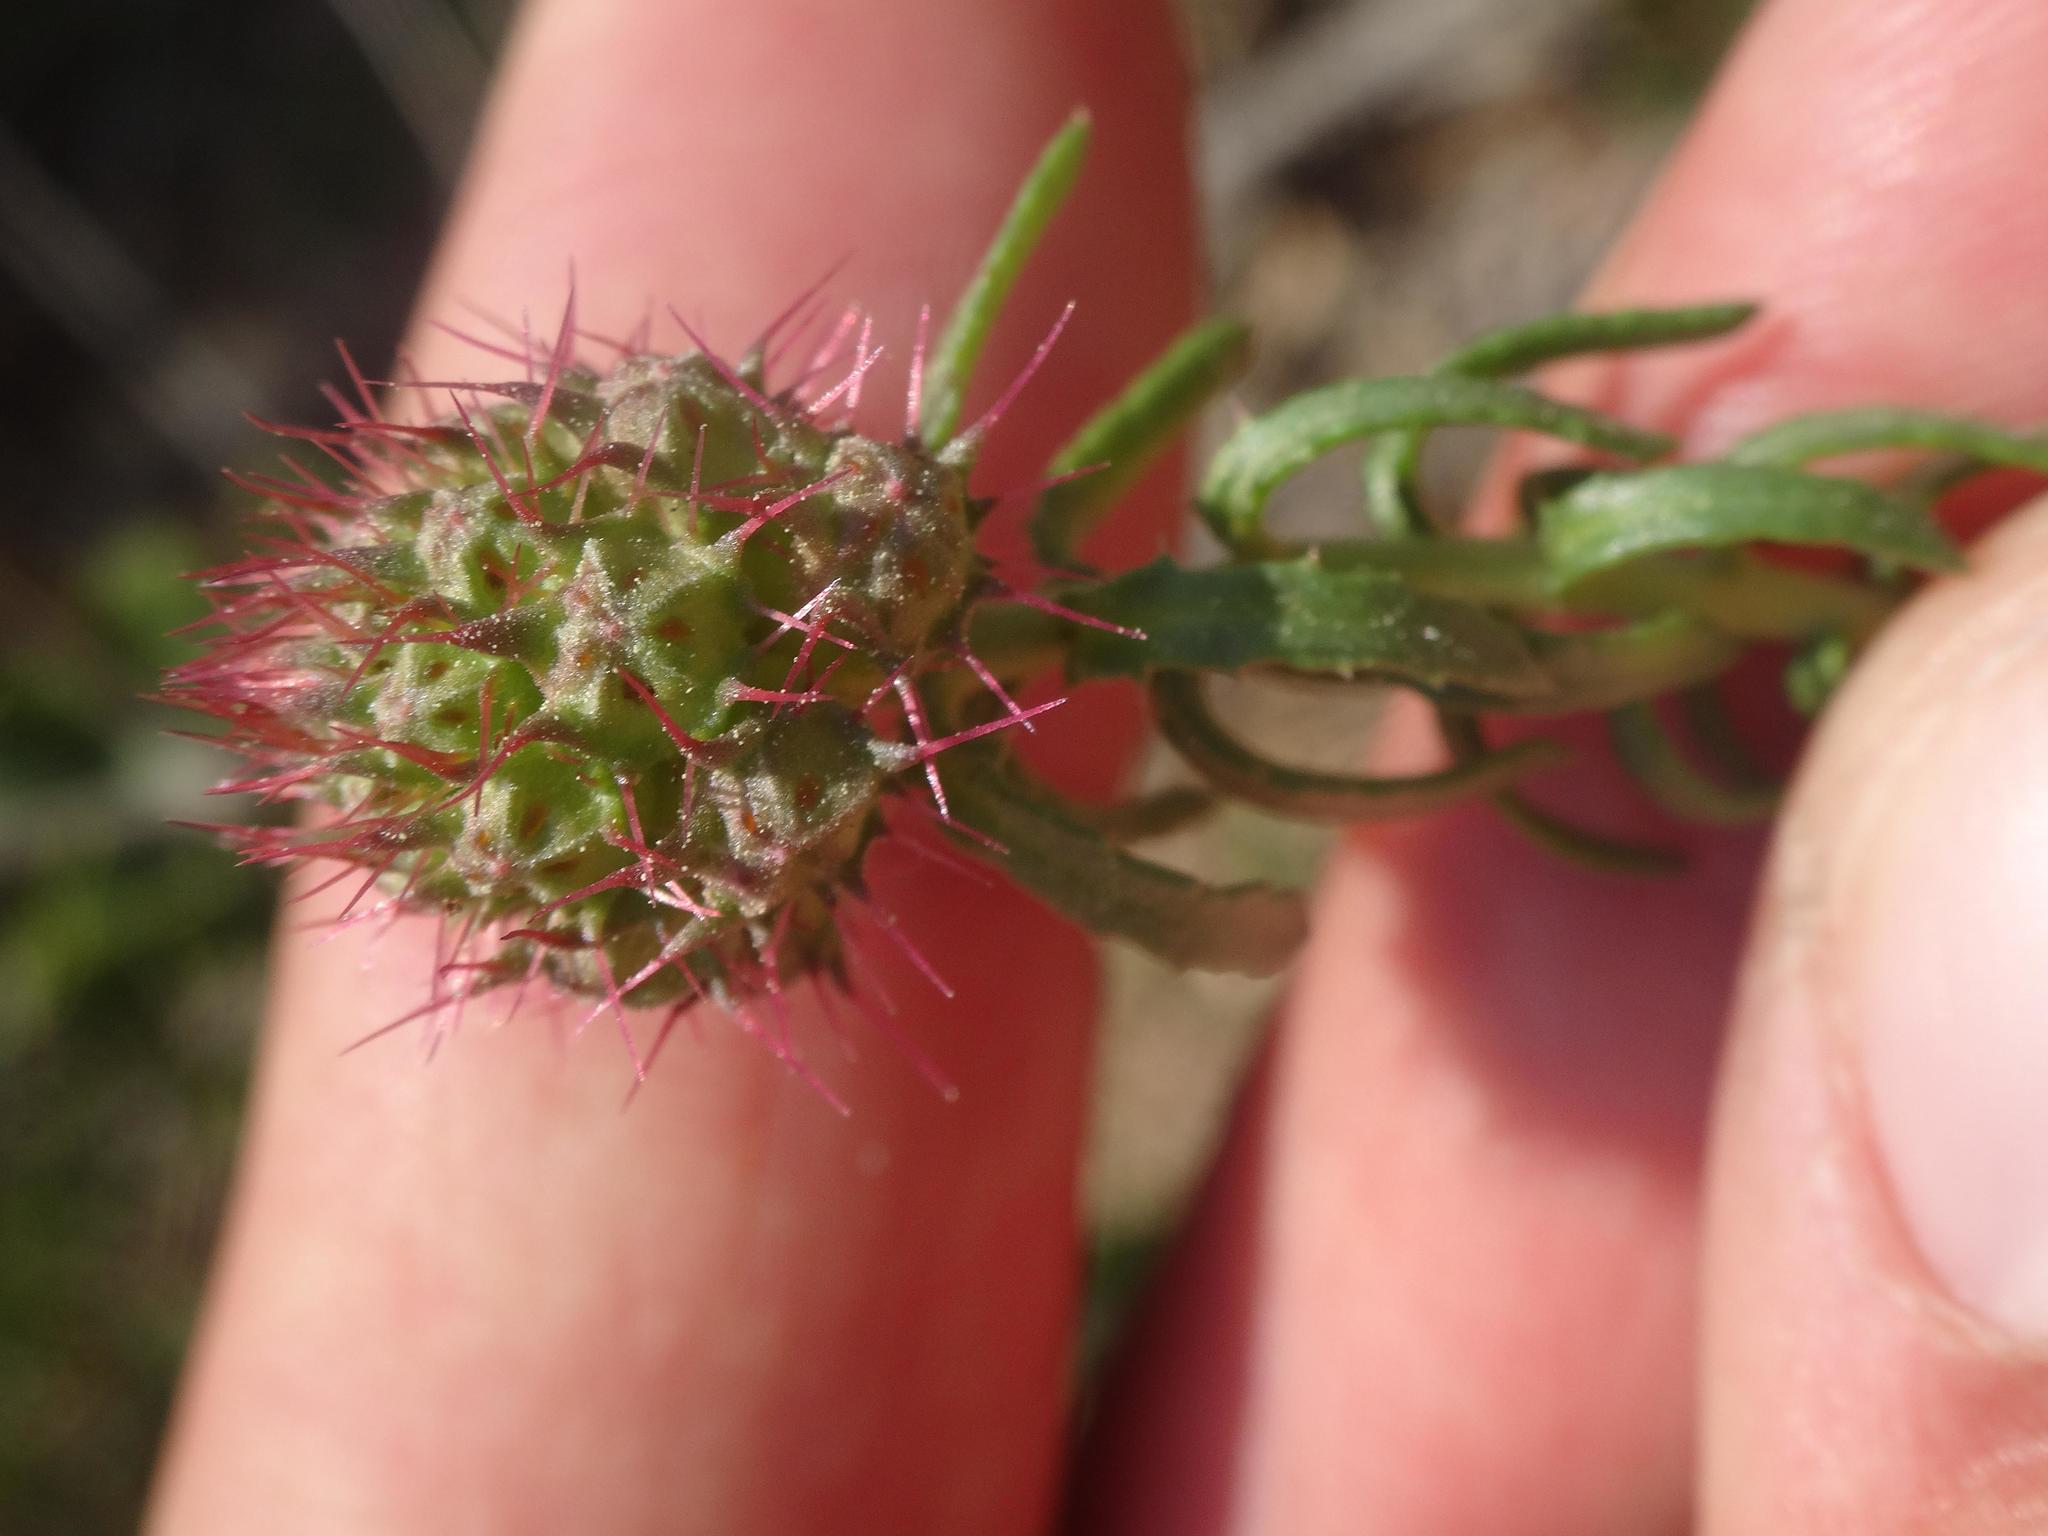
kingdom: Plantae
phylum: Tracheophyta
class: Magnoliopsida
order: Ericales
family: Primulaceae
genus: Coris
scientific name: Coris monspeliensis
